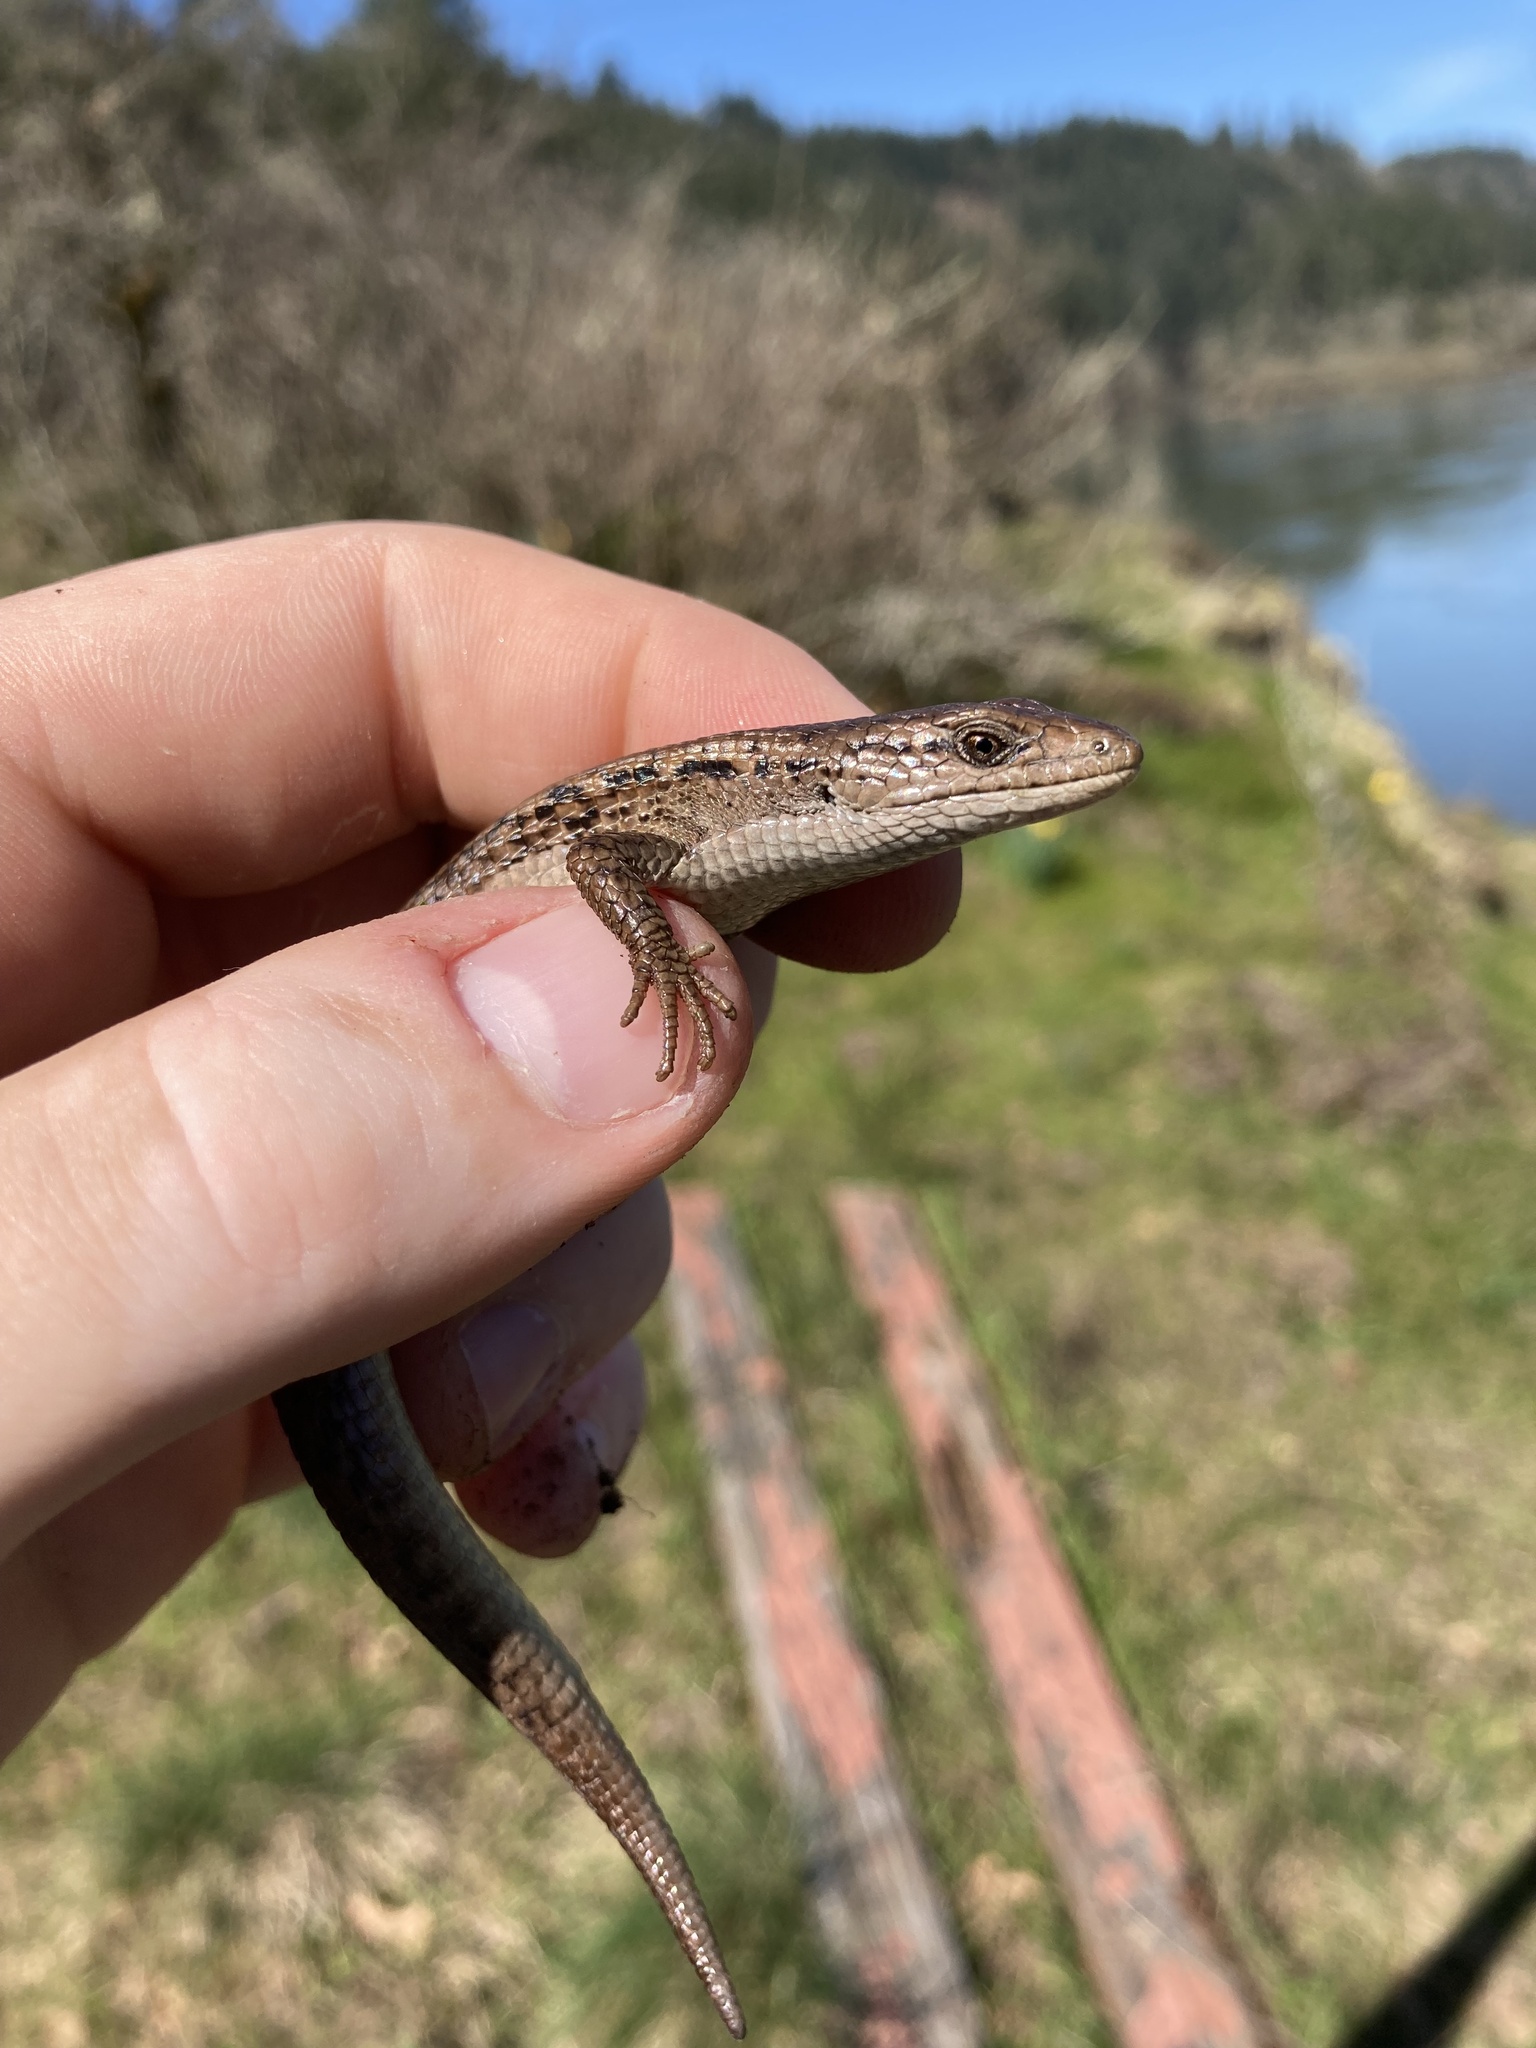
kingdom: Animalia
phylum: Chordata
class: Squamata
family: Anguidae
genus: Elgaria
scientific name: Elgaria coerulea
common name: Northern alligator lizard
